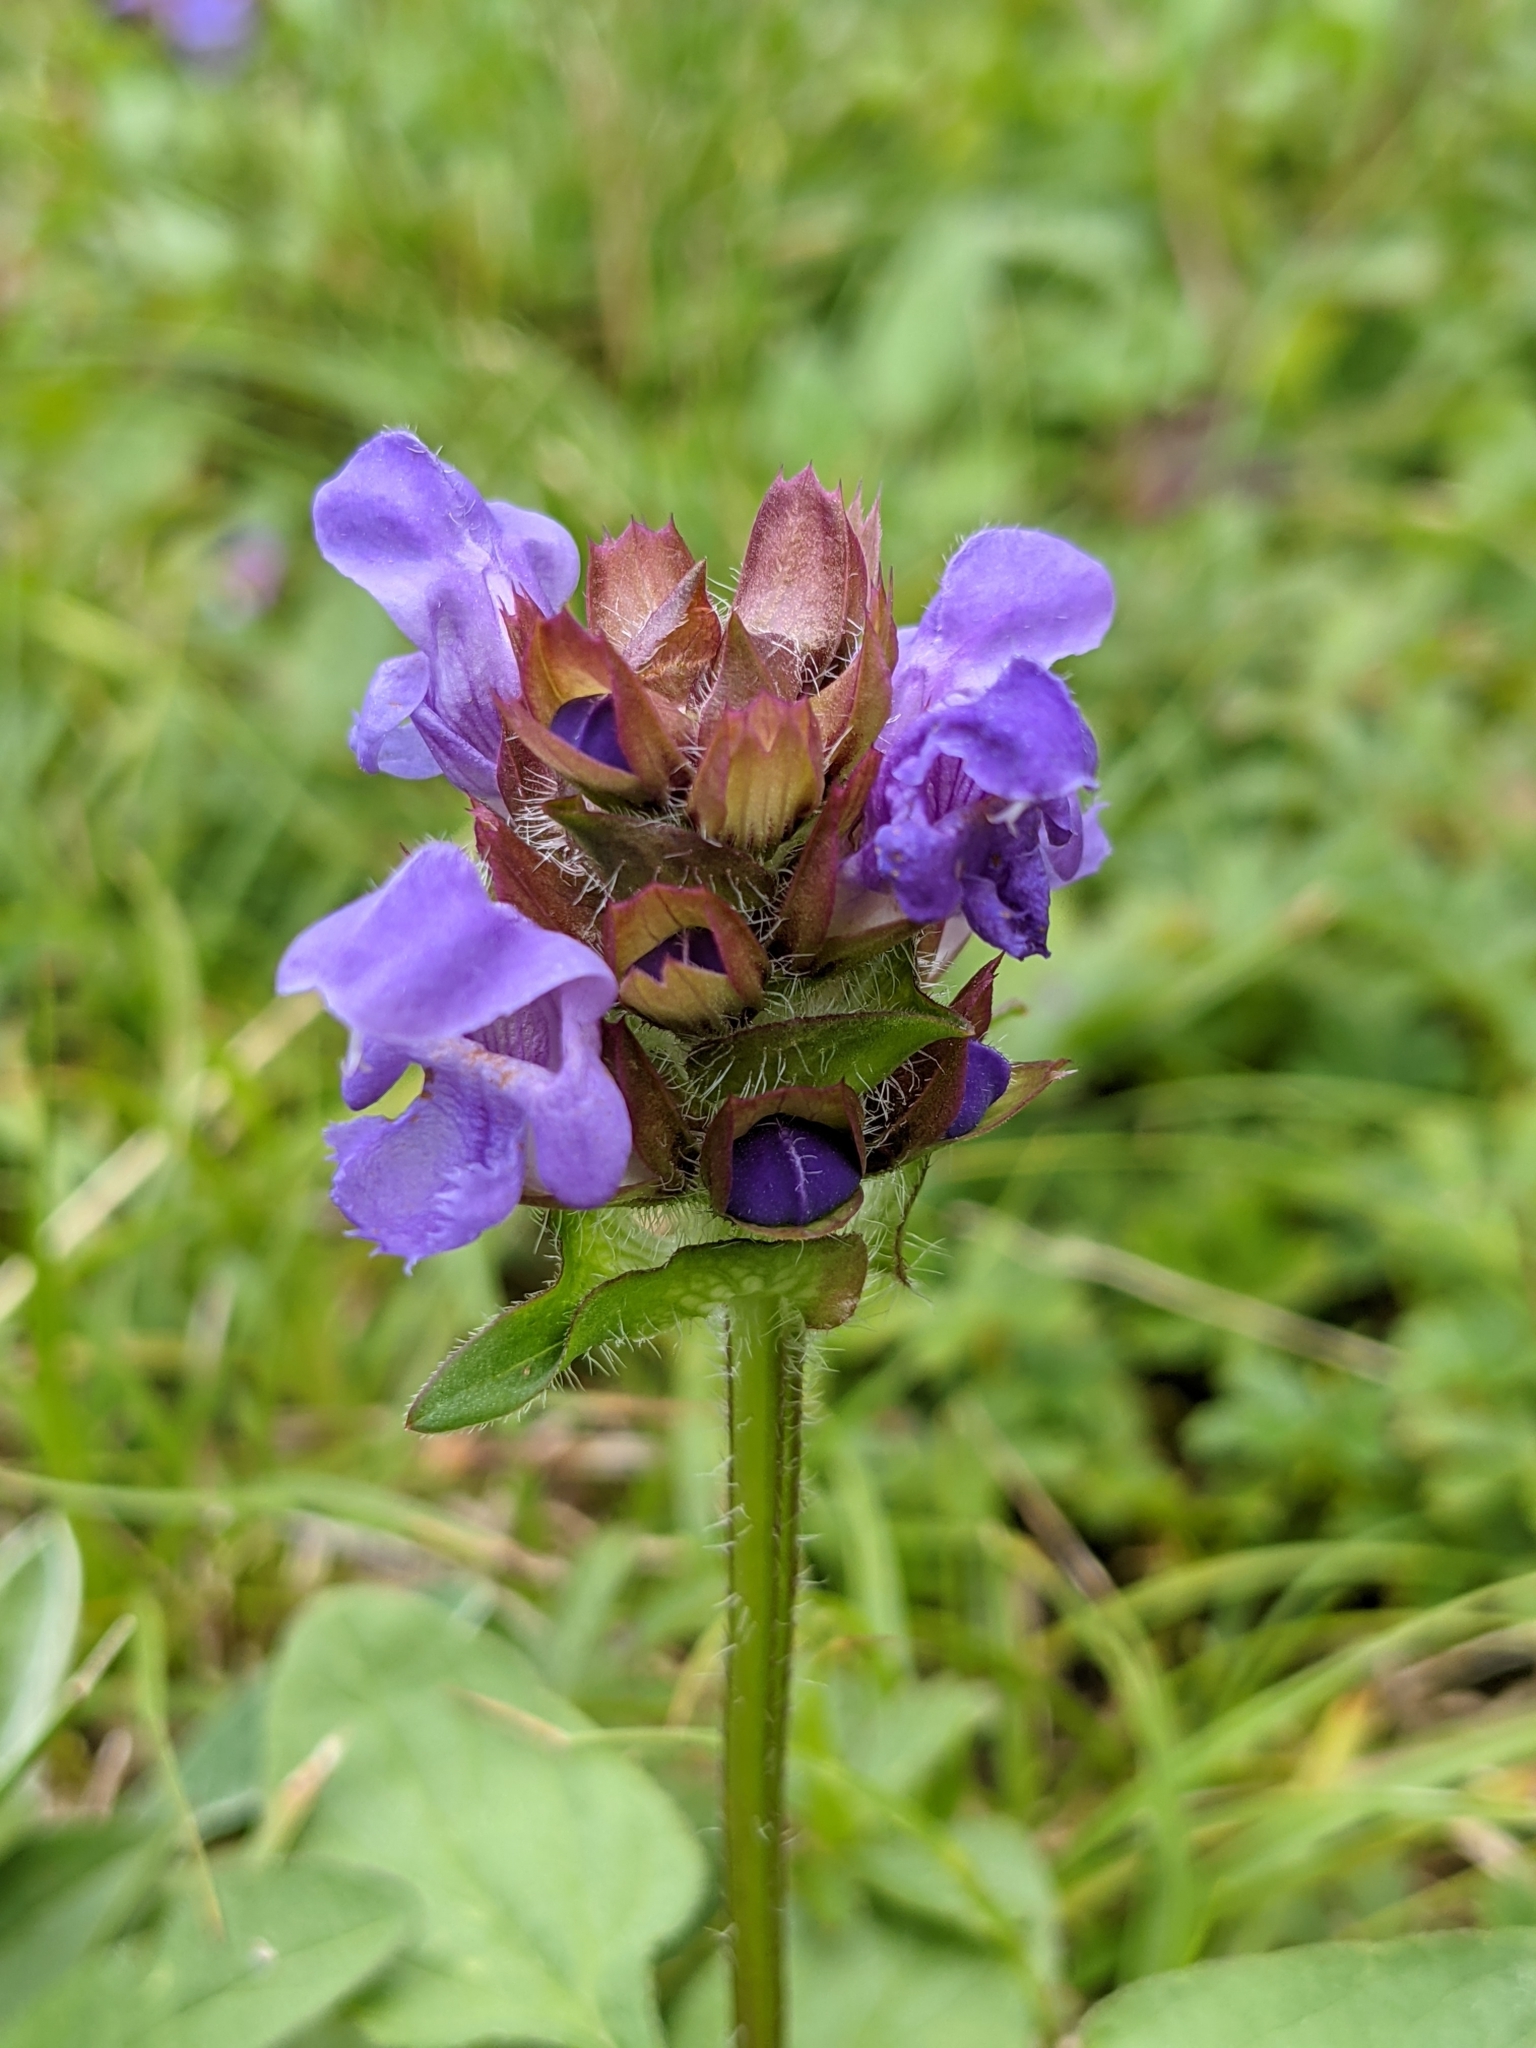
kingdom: Plantae
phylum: Tracheophyta
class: Magnoliopsida
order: Lamiales
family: Lamiaceae
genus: Prunella
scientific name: Prunella grandiflora
